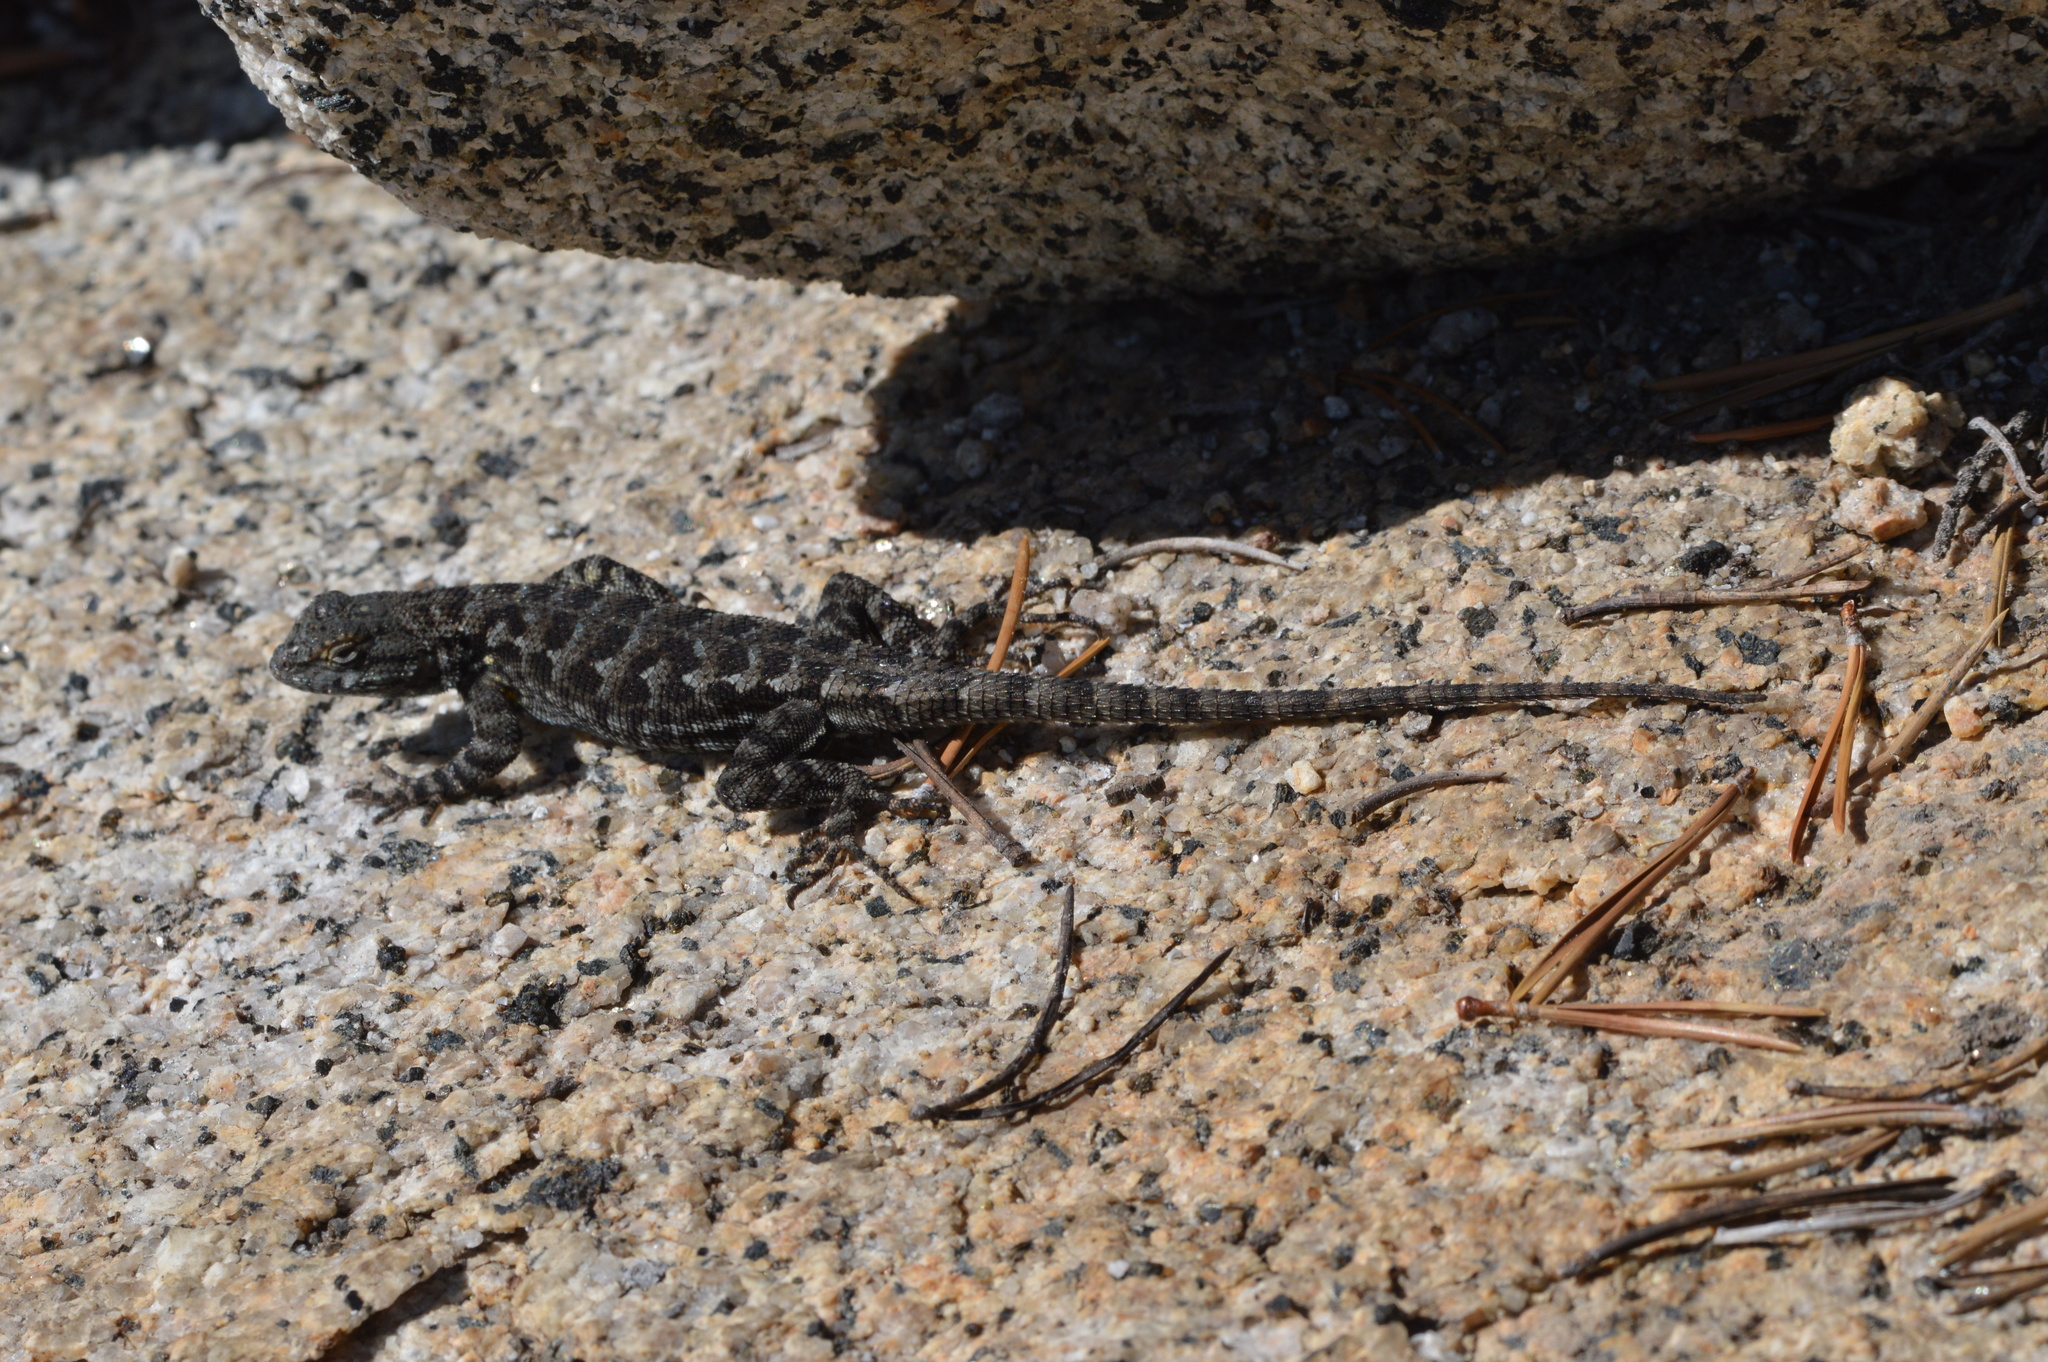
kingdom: Animalia
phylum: Chordata
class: Squamata
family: Phrynosomatidae
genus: Sceloporus
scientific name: Sceloporus occidentalis
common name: Western fence lizard
